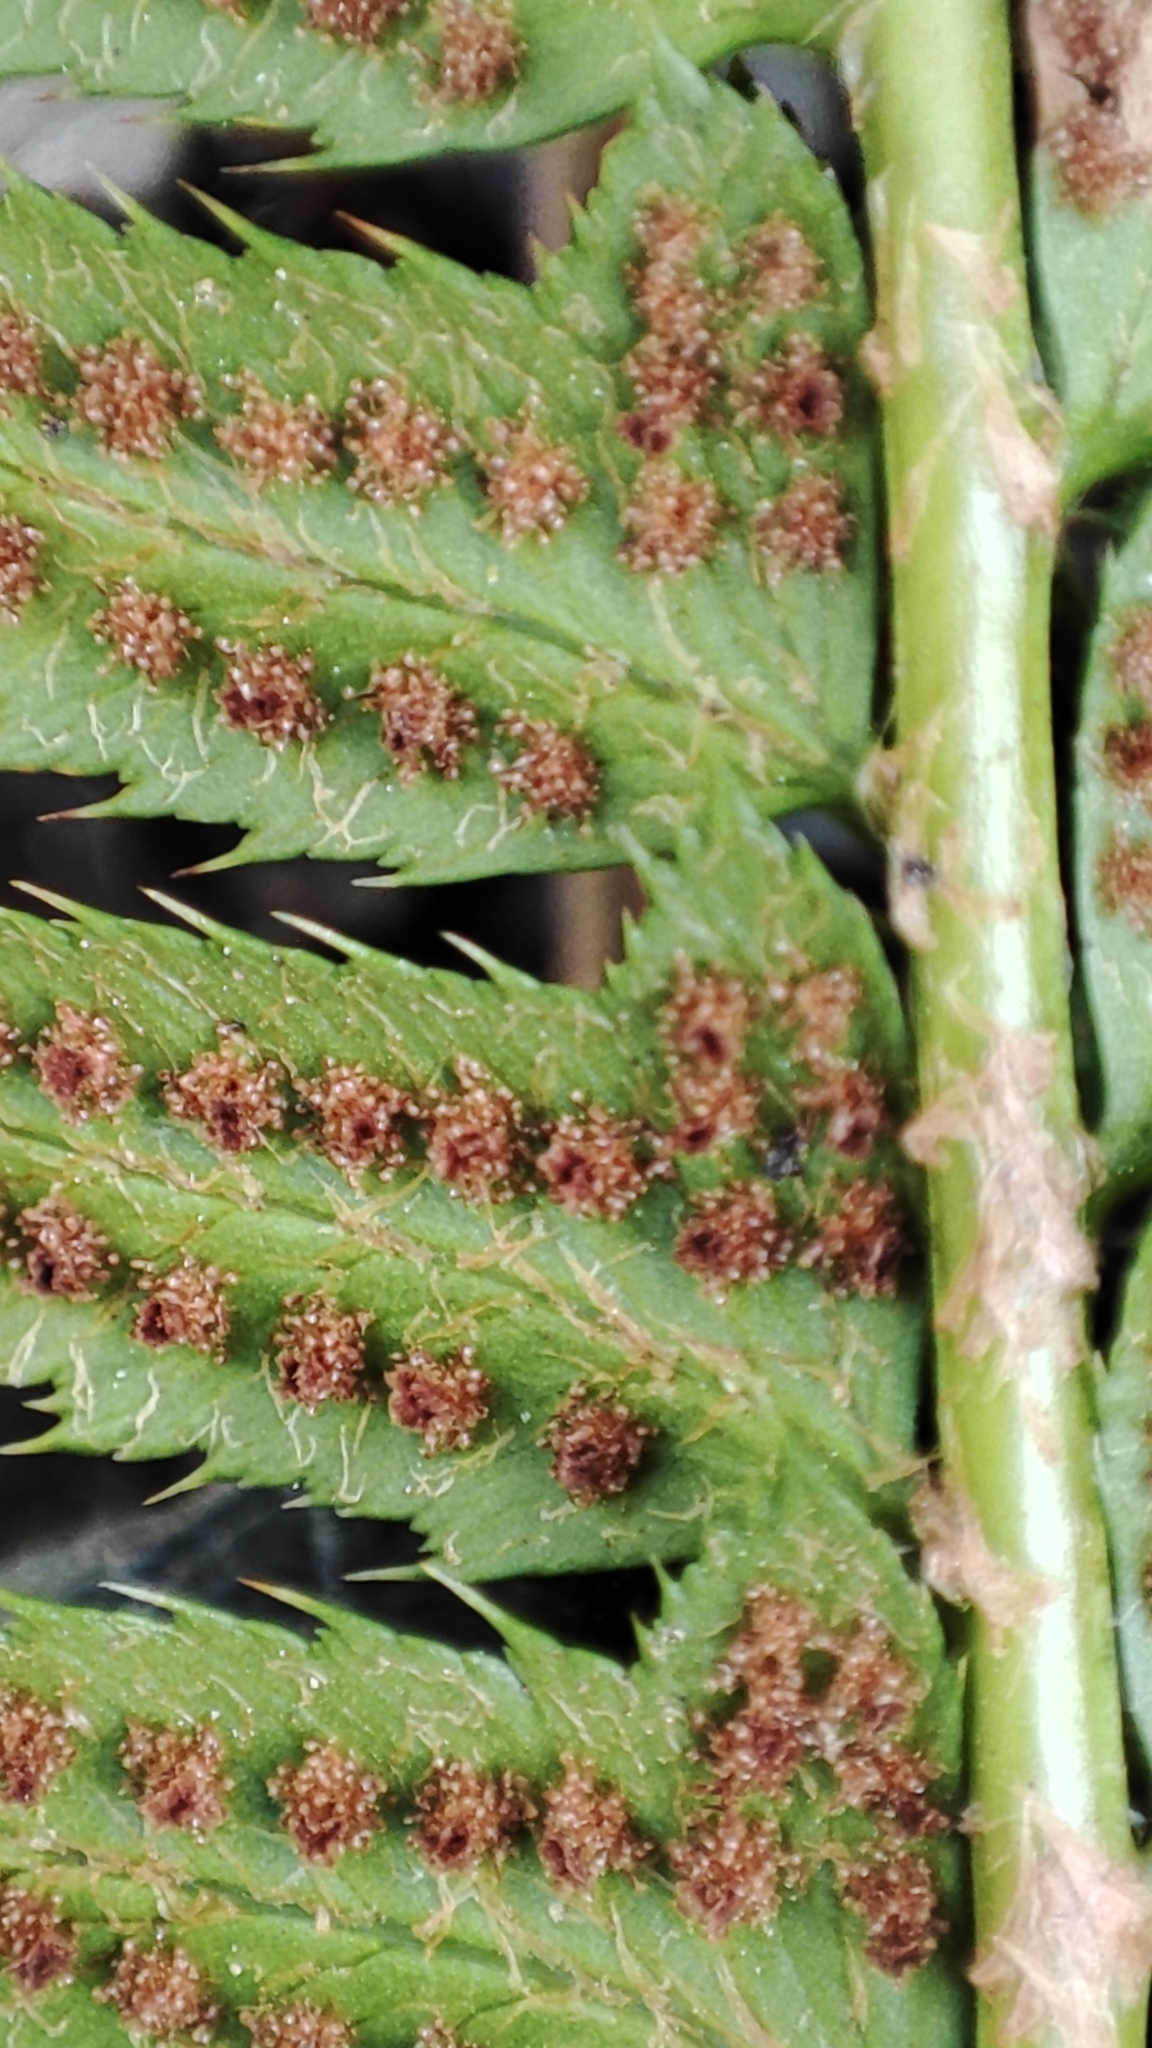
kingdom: Plantae
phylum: Tracheophyta
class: Polypodiopsida
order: Polypodiales
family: Dryopteridaceae
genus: Polystichum
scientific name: Polystichum lonchitis
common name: Holly fern
